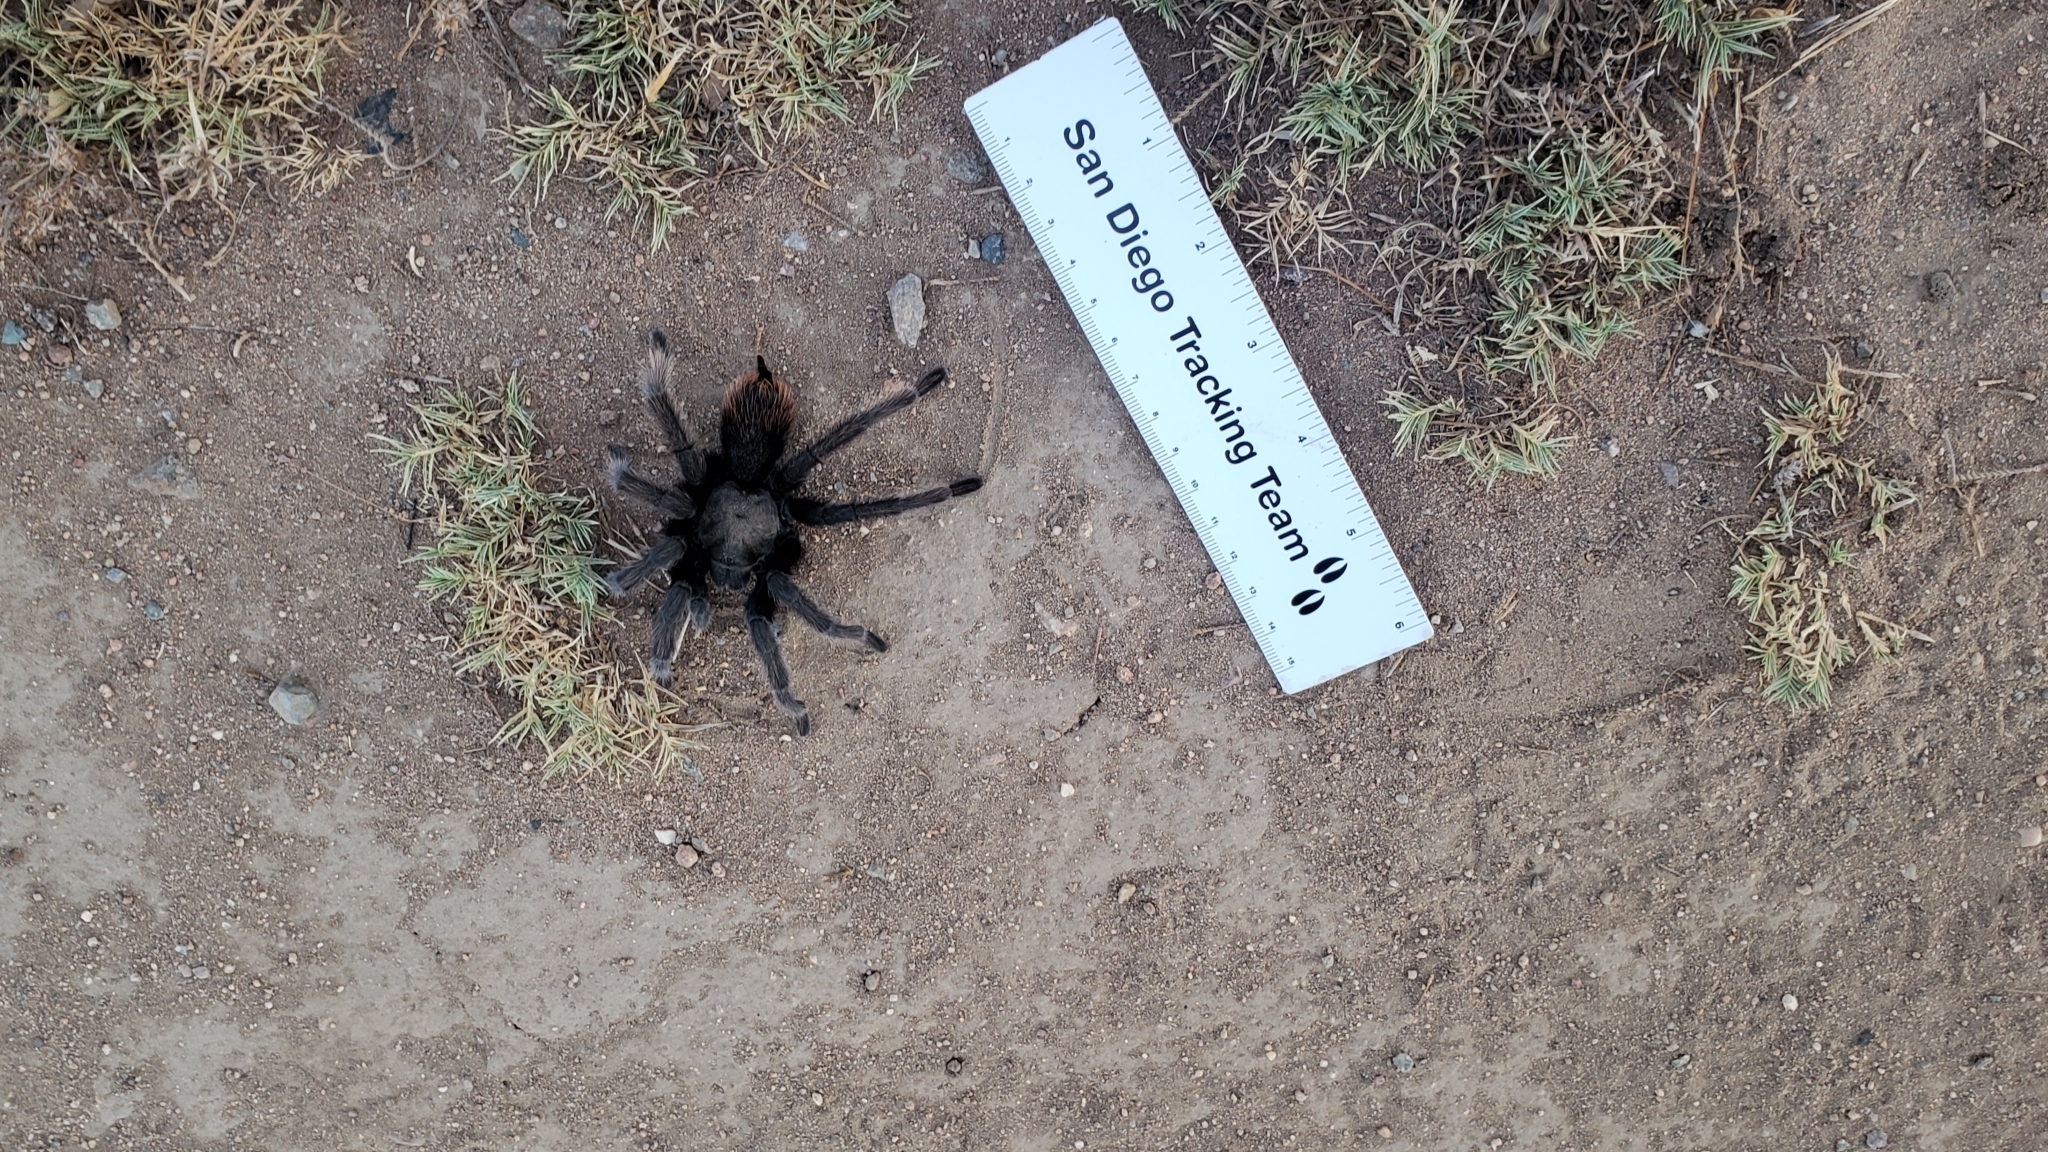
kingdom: Animalia
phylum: Arthropoda
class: Arachnida
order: Araneae
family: Theraphosidae
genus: Aphonopelma
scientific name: Aphonopelma eutylenum
